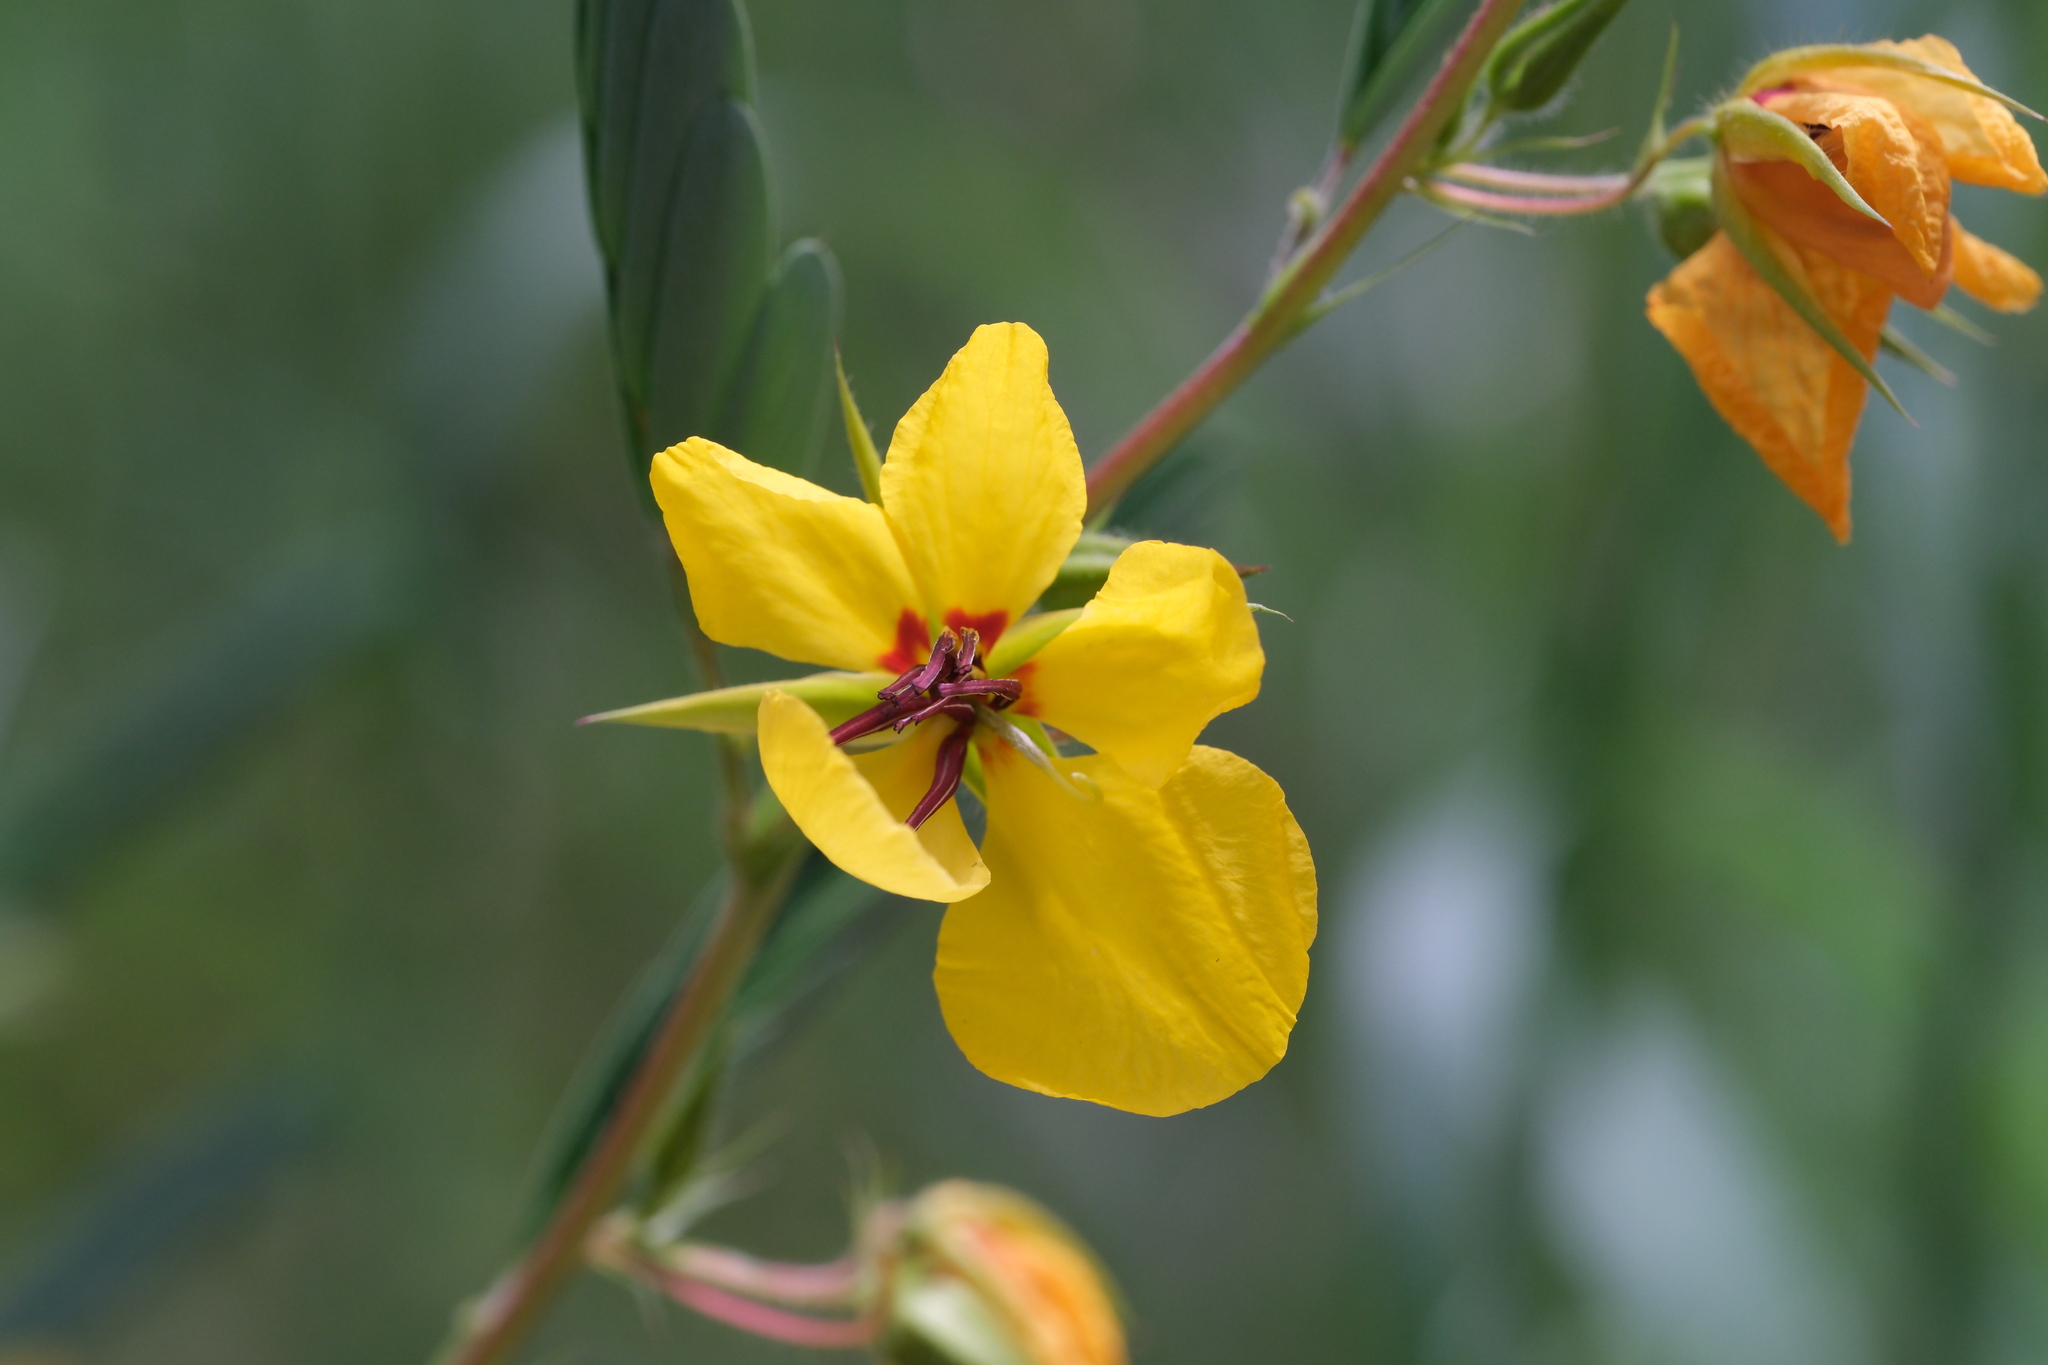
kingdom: Plantae
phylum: Tracheophyta
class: Magnoliopsida
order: Fabales
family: Fabaceae
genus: Chamaecrista
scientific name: Chamaecrista fasciculata
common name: Golden cassia
